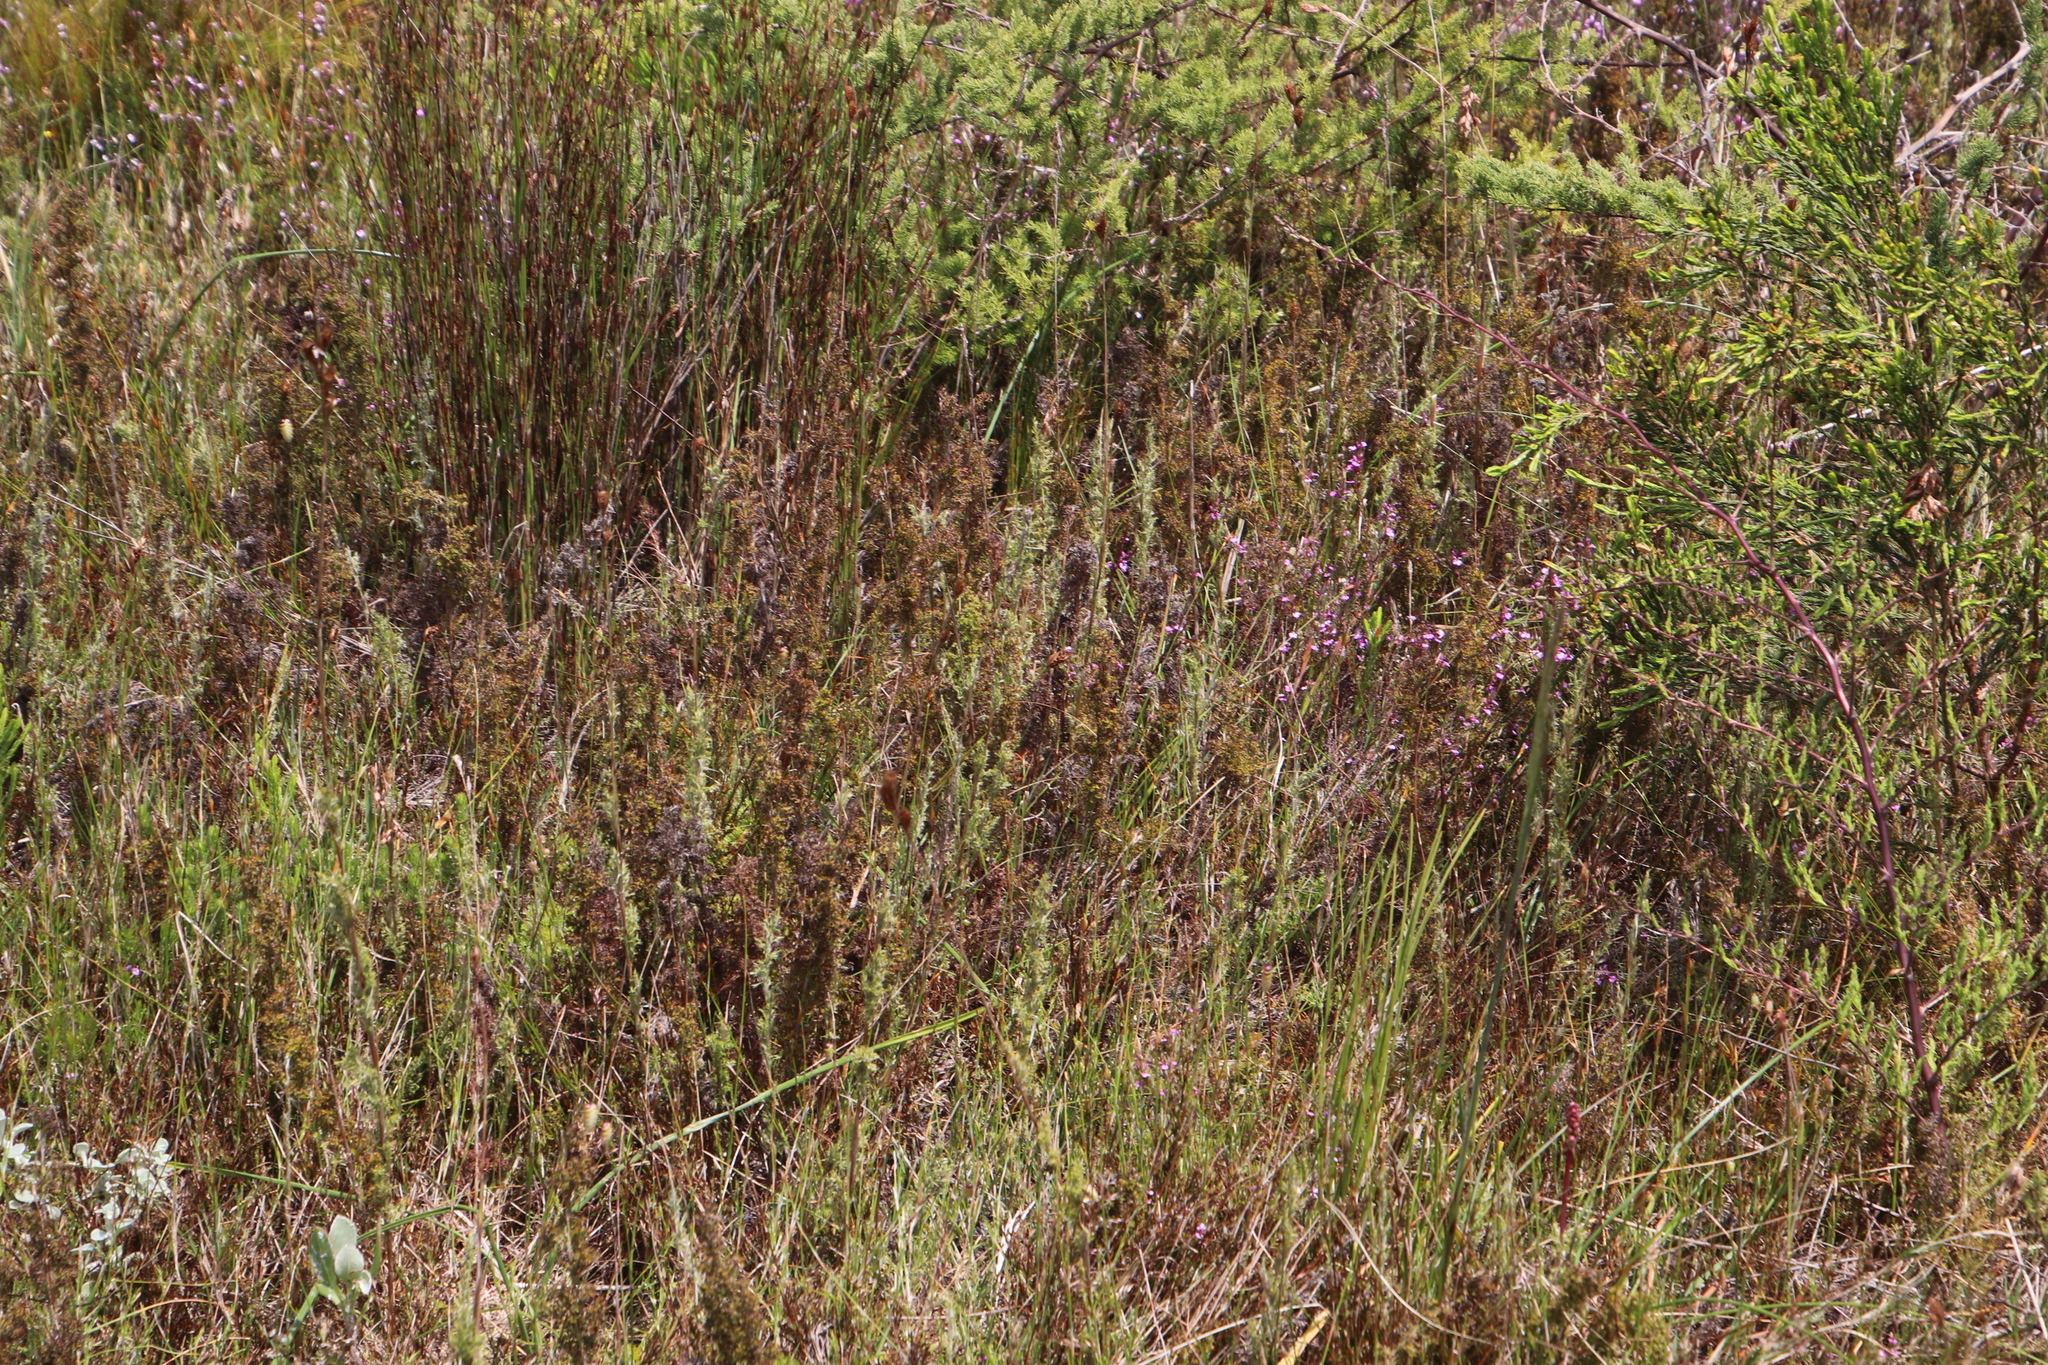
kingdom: Plantae
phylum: Tracheophyta
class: Liliopsida
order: Poales
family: Restionaceae
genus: Thamnochortus
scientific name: Thamnochortus fruticosus
